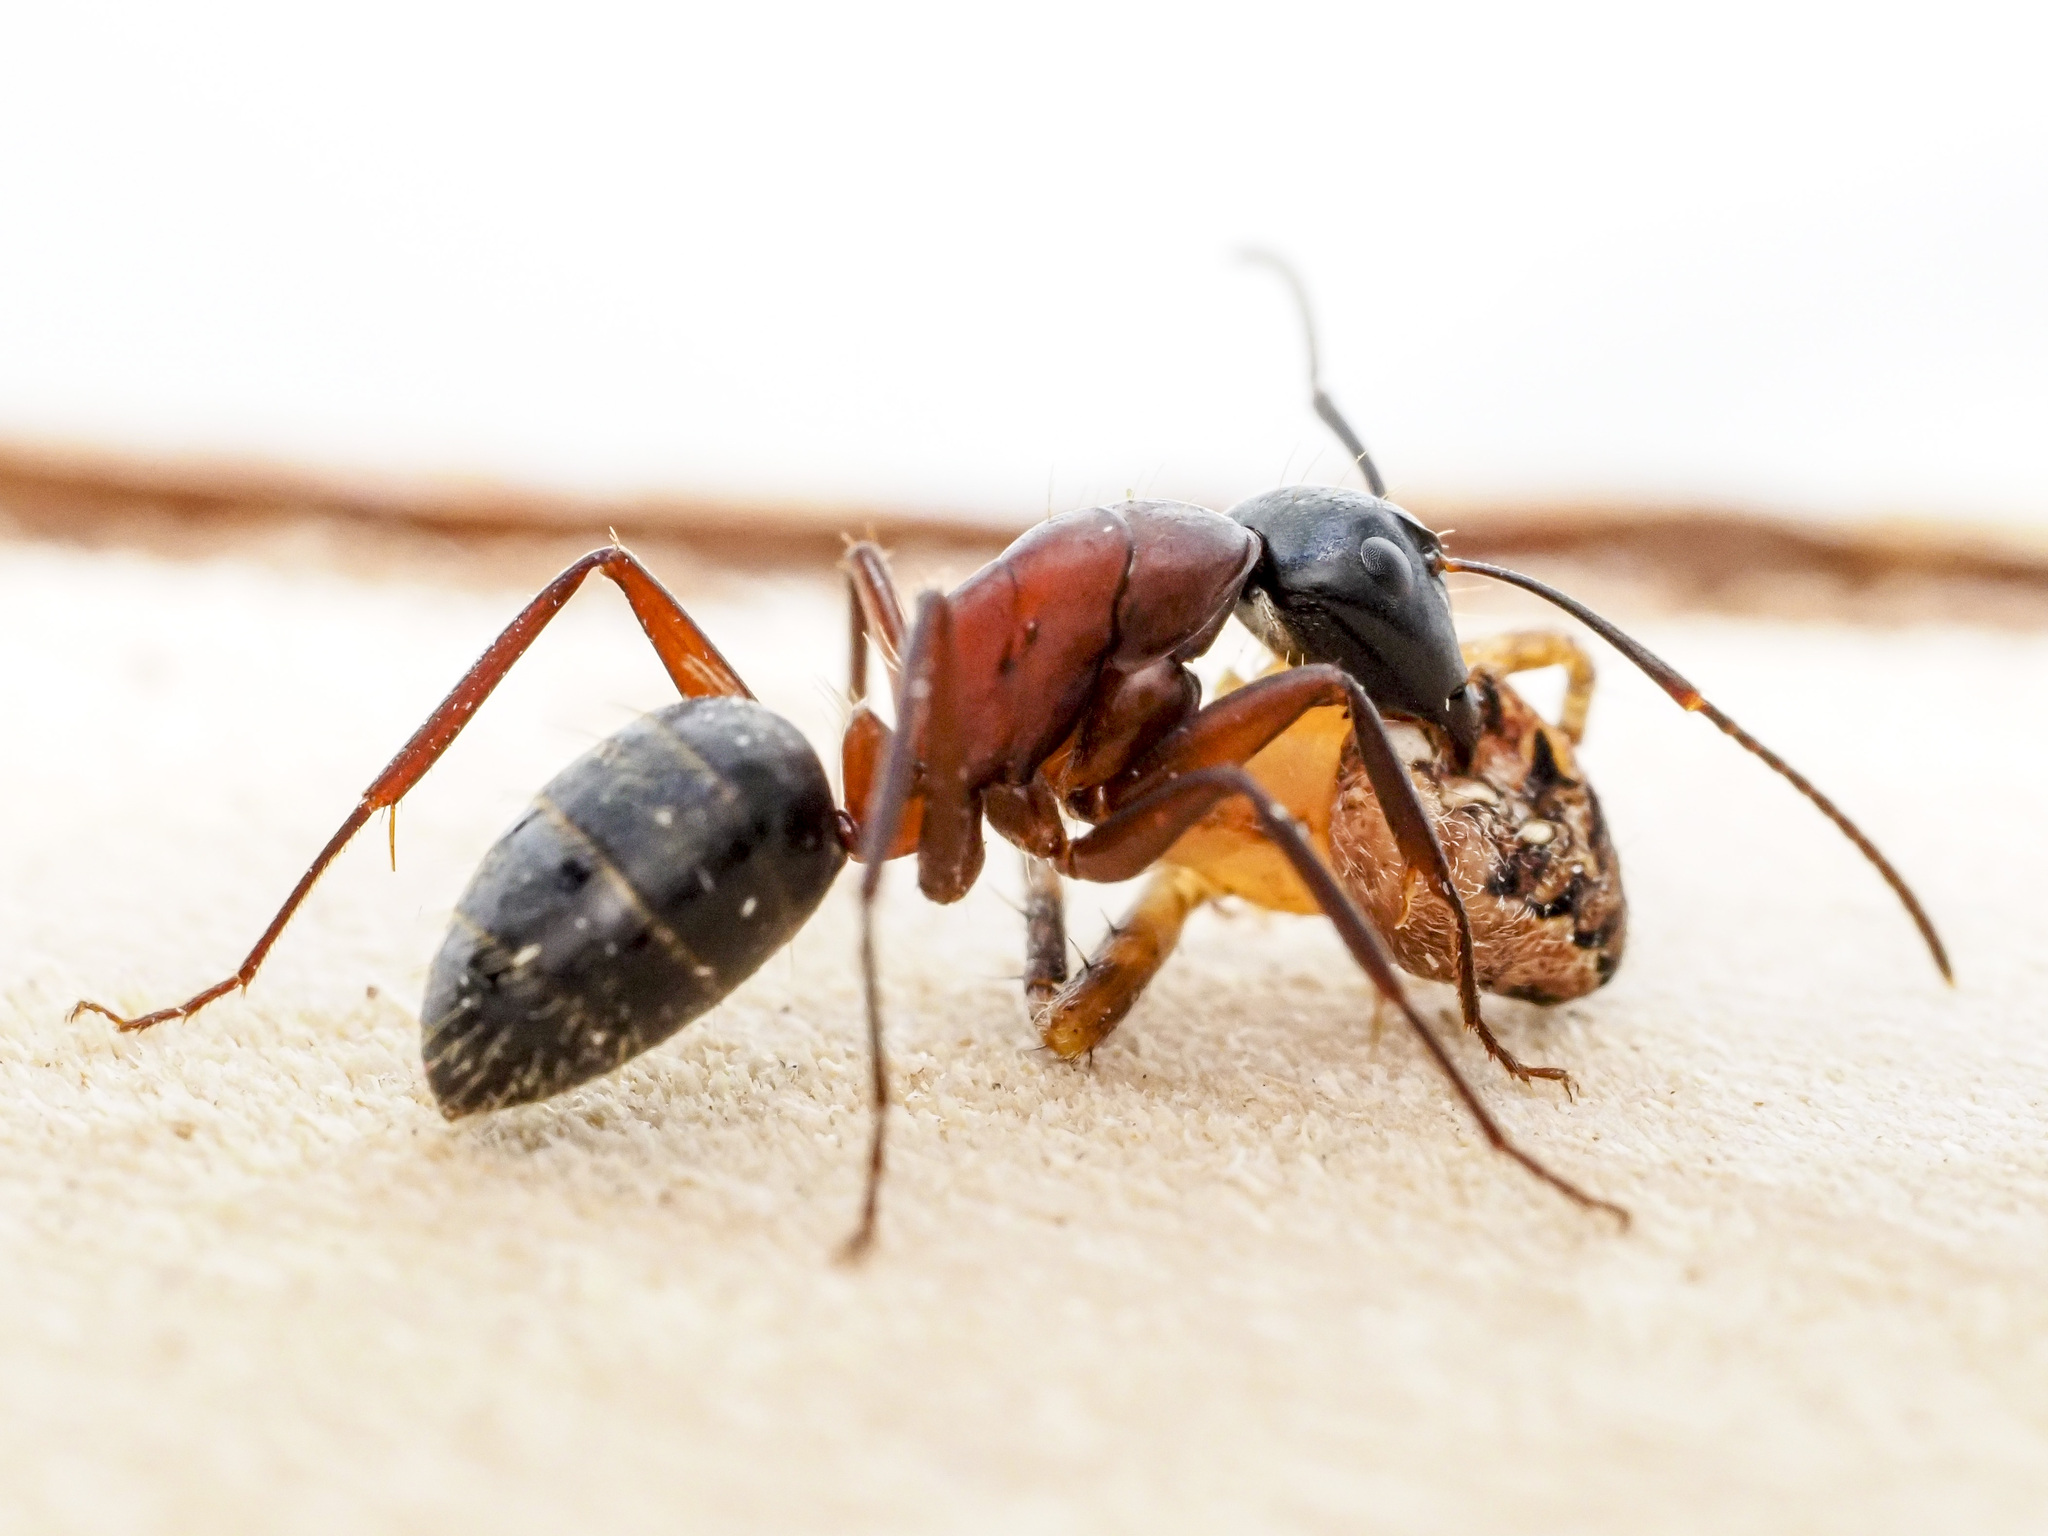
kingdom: Animalia
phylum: Arthropoda
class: Insecta
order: Hymenoptera
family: Formicidae
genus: Camponotus
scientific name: Camponotus ligniperdus
